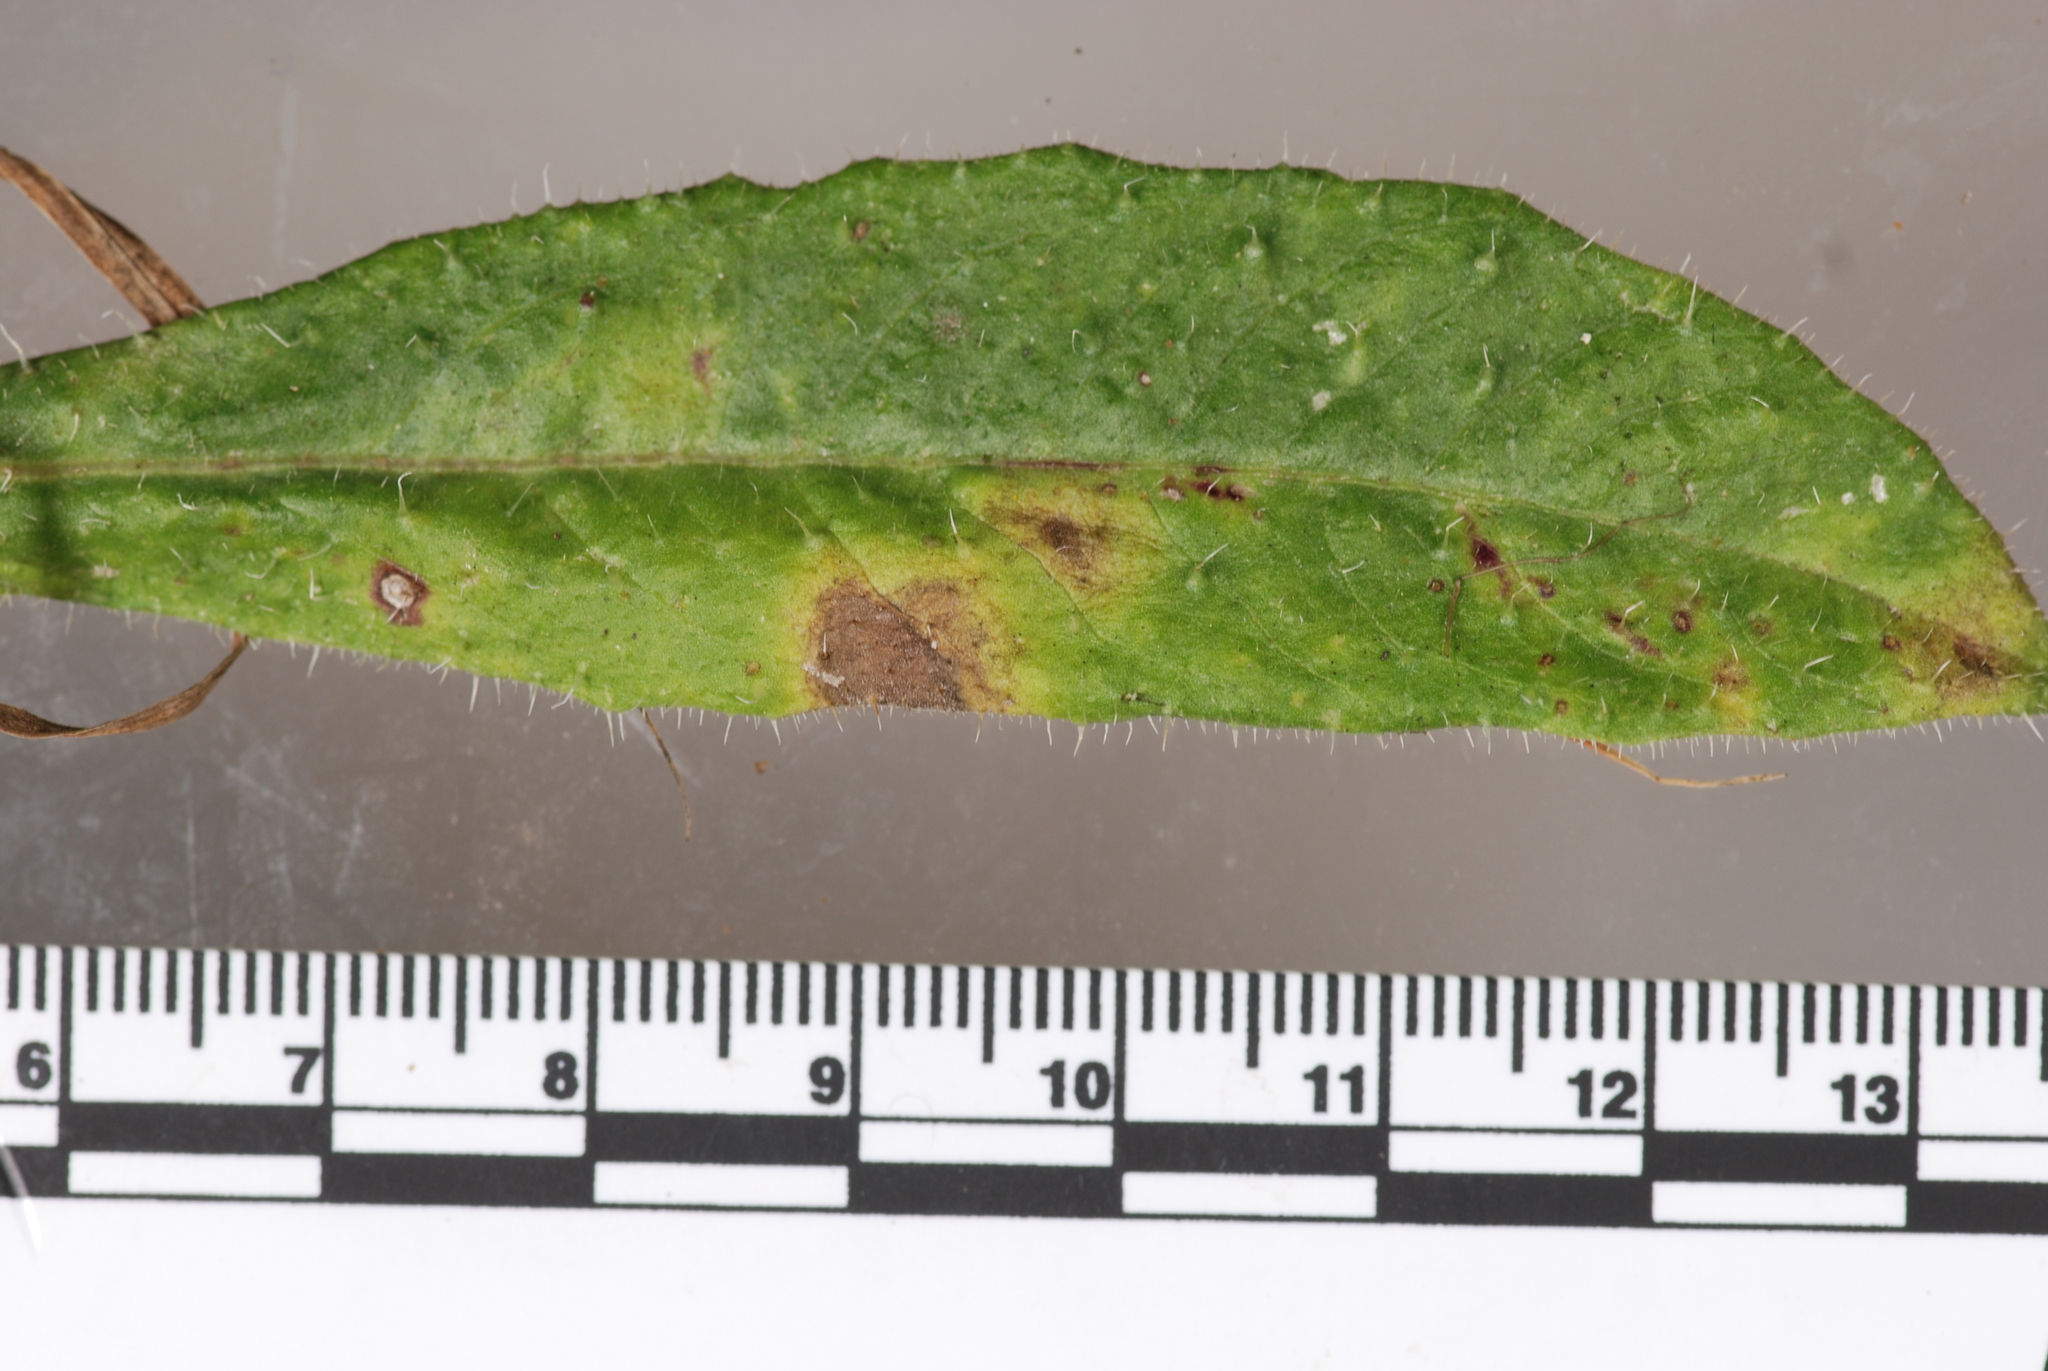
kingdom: Fungi
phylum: Ascomycota
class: Dothideomycetes
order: Capnodiales
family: Mycosphaerellaceae
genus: Ramularia
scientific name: Ramularia helminthiae
